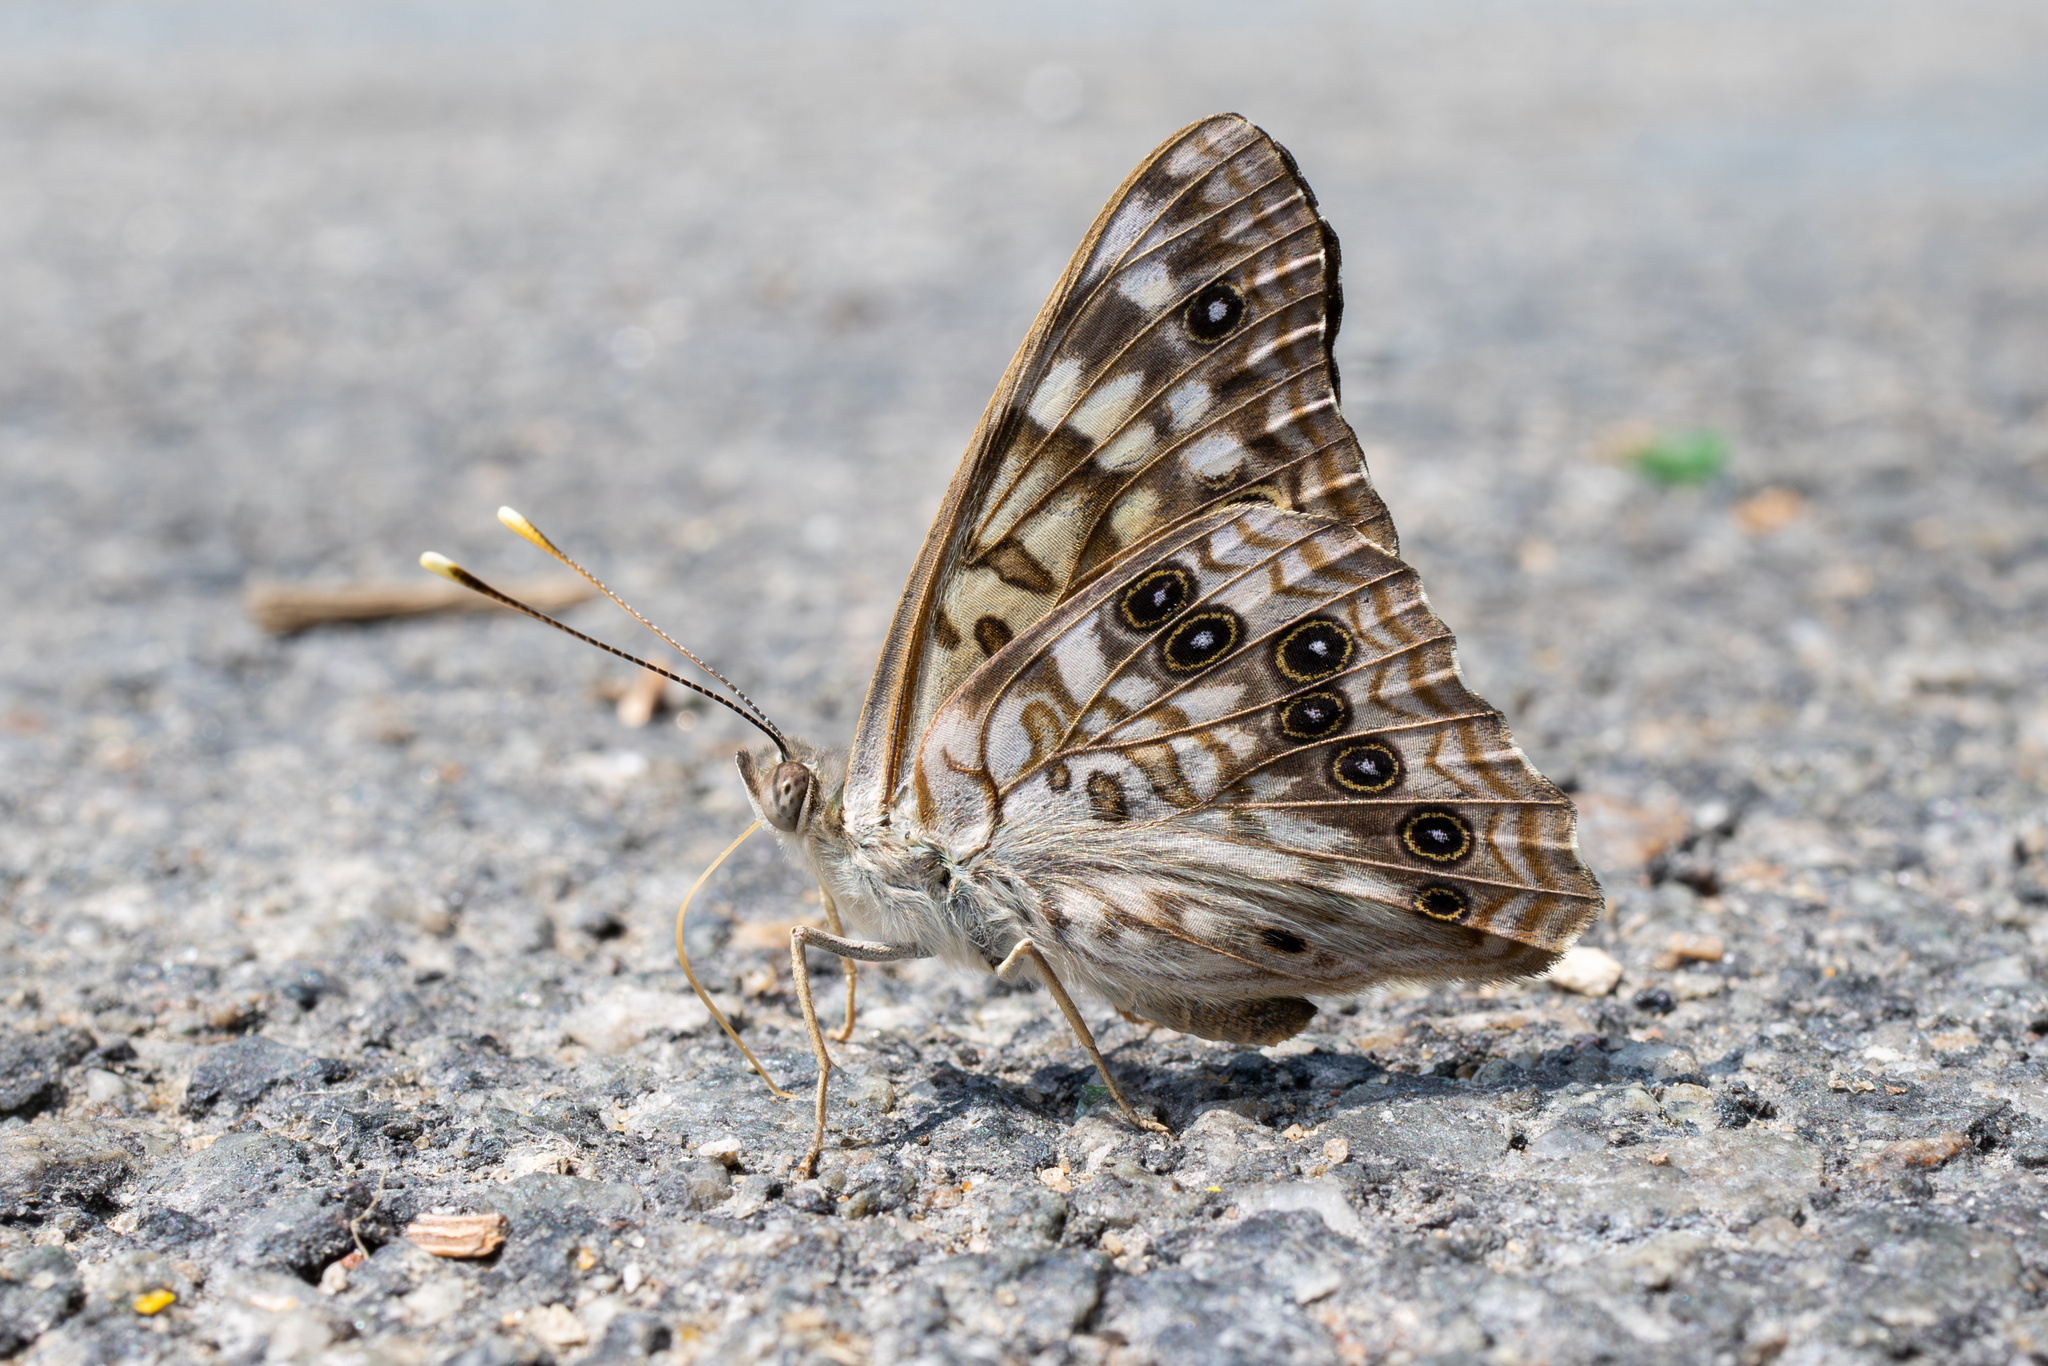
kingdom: Animalia
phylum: Arthropoda
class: Insecta
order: Lepidoptera
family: Nymphalidae
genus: Asterocampa
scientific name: Asterocampa celtis
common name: Hackberry emperor
